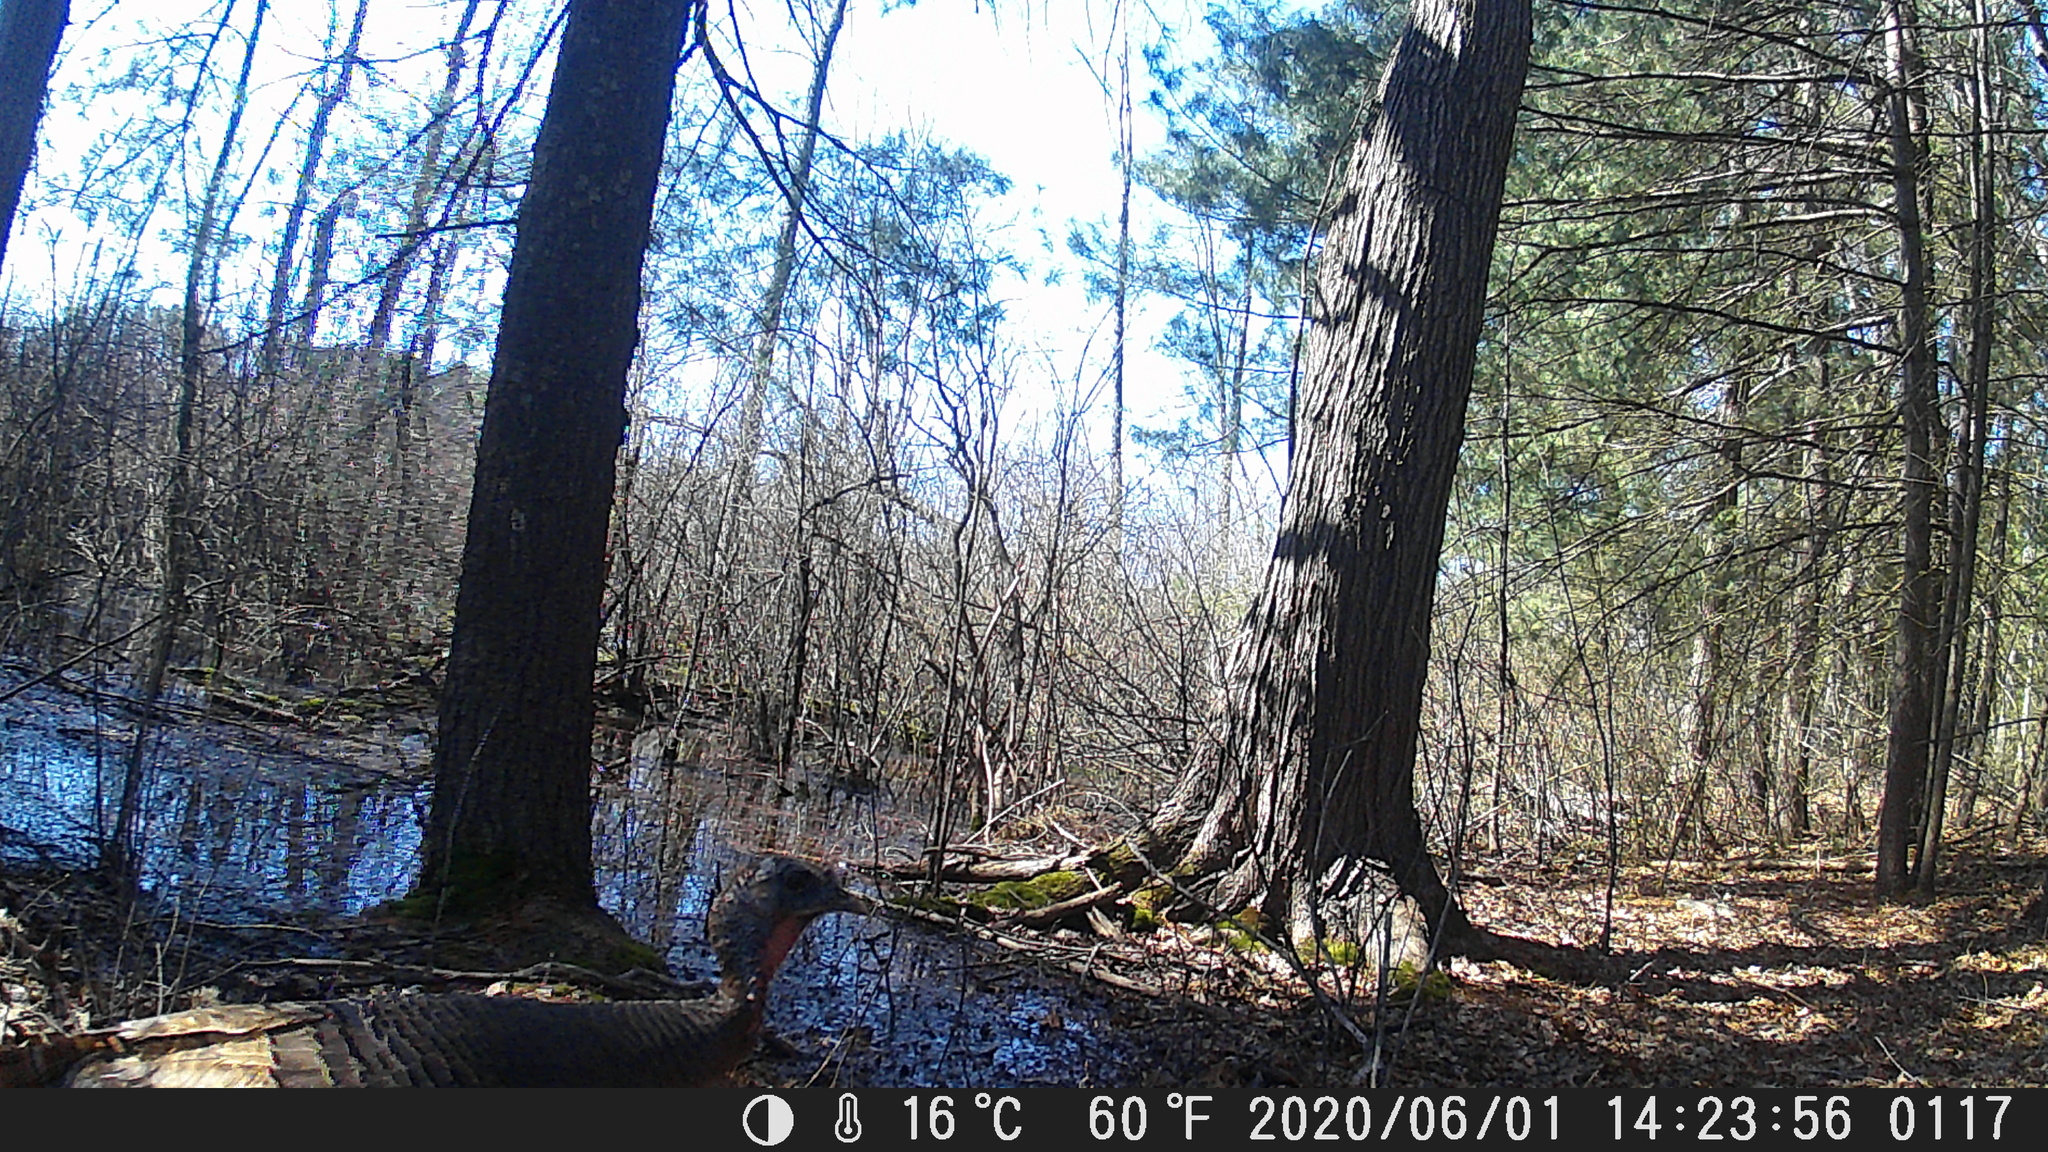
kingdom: Animalia
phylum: Chordata
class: Aves
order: Galliformes
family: Phasianidae
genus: Meleagris
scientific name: Meleagris gallopavo
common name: Wild turkey
